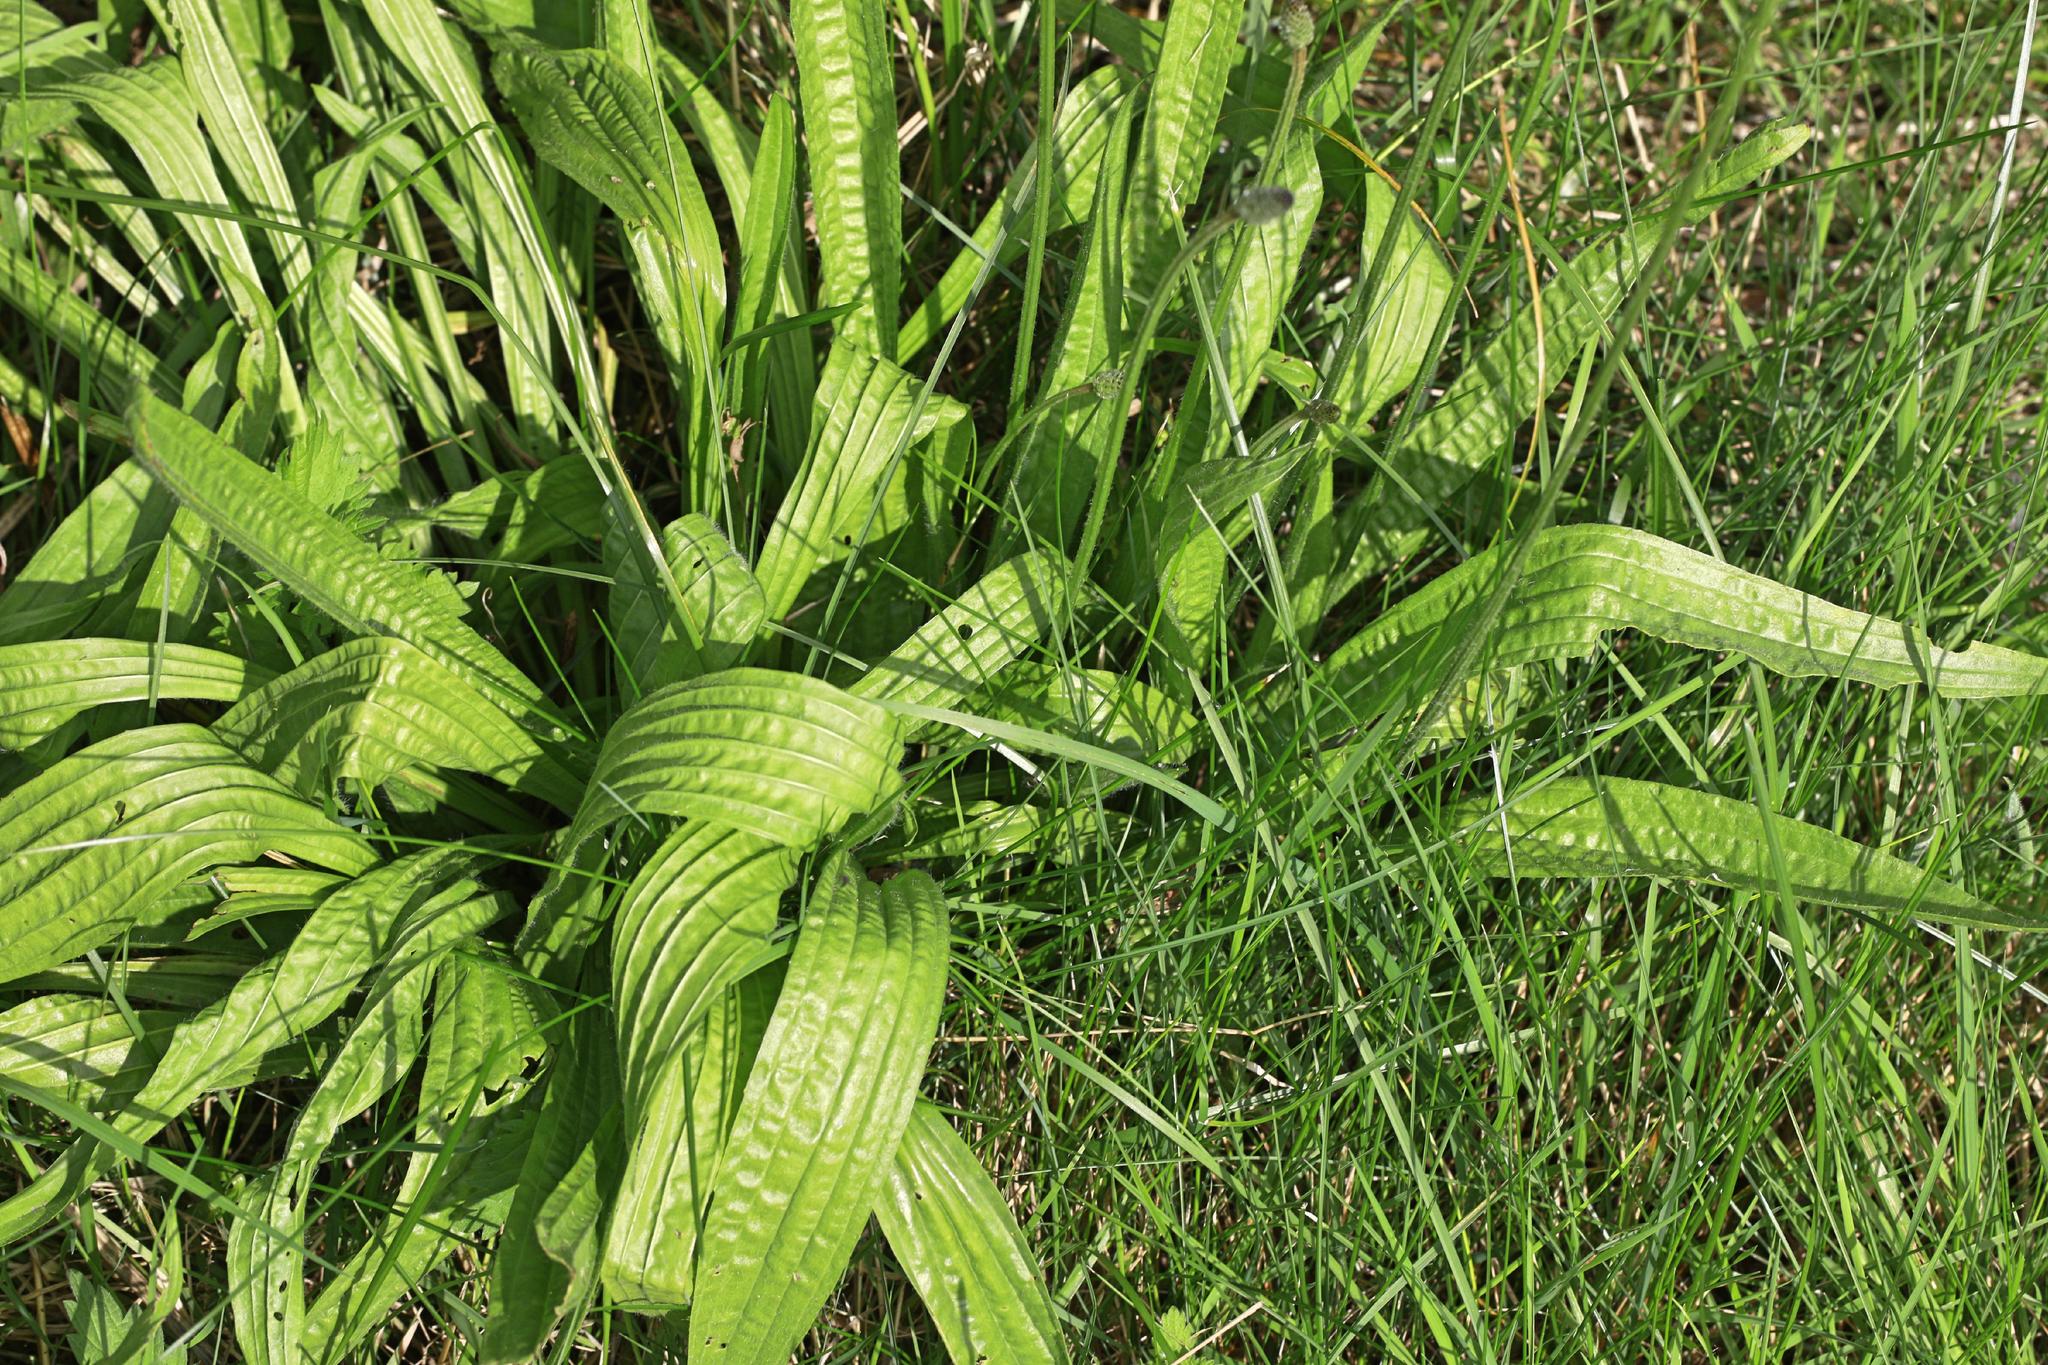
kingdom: Plantae
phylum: Tracheophyta
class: Magnoliopsida
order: Lamiales
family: Plantaginaceae
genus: Plantago
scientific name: Plantago lanceolata
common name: Ribwort plantain
